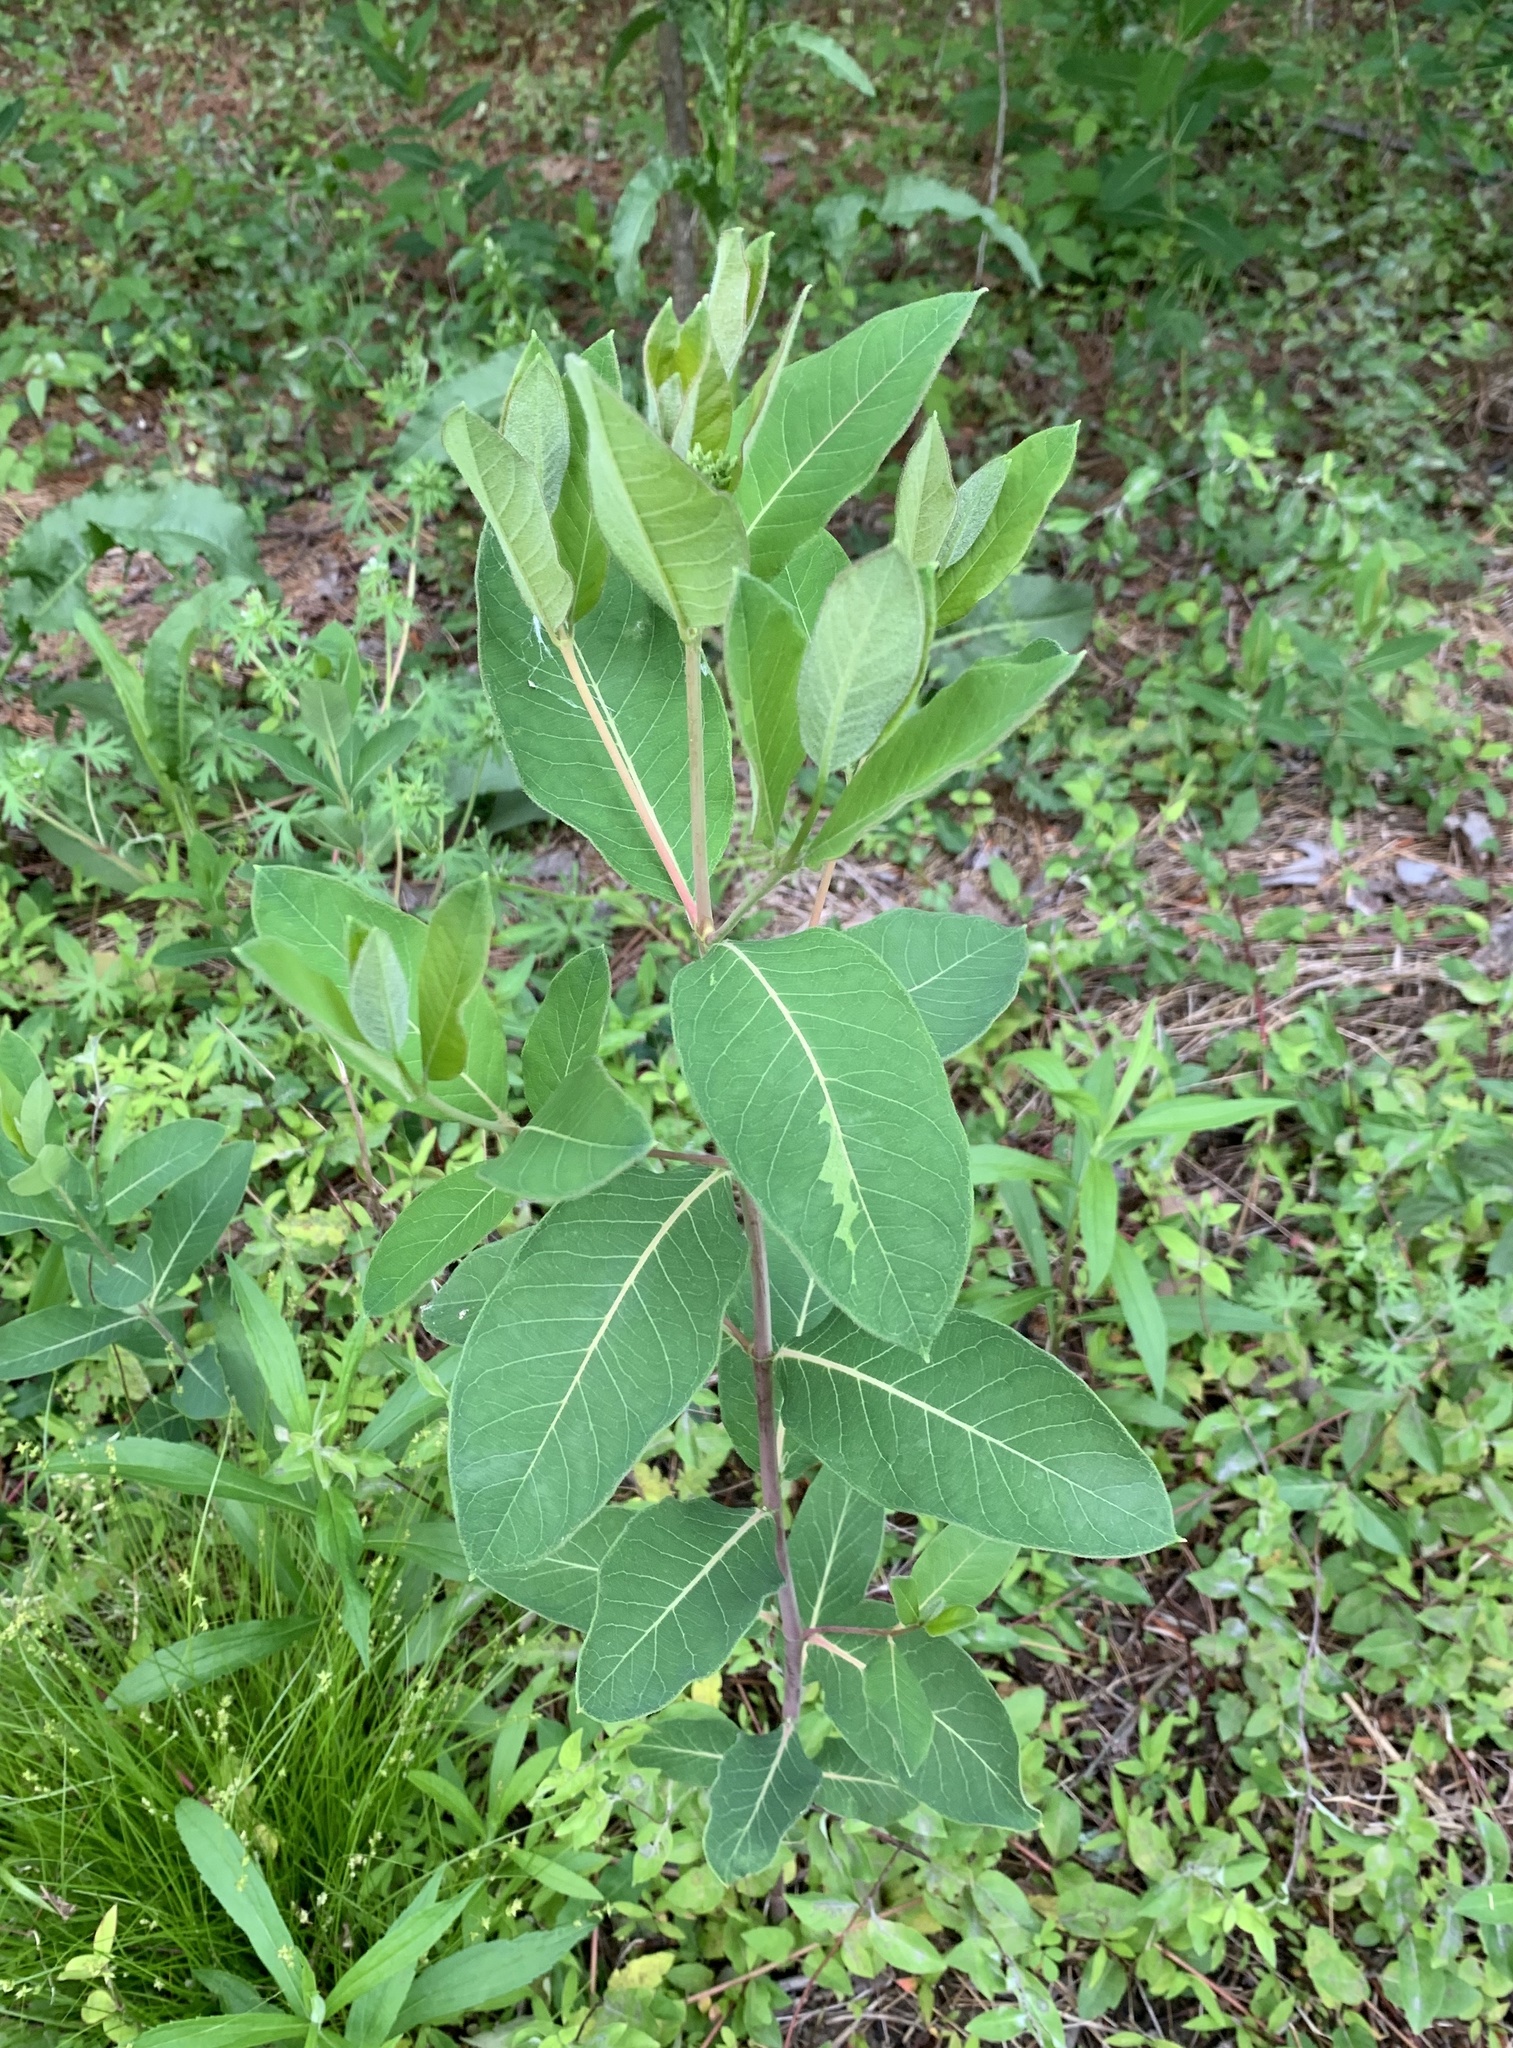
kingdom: Plantae
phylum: Tracheophyta
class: Magnoliopsida
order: Gentianales
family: Apocynaceae
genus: Apocynum
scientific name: Apocynum cannabinum
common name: Hemp dogbane
